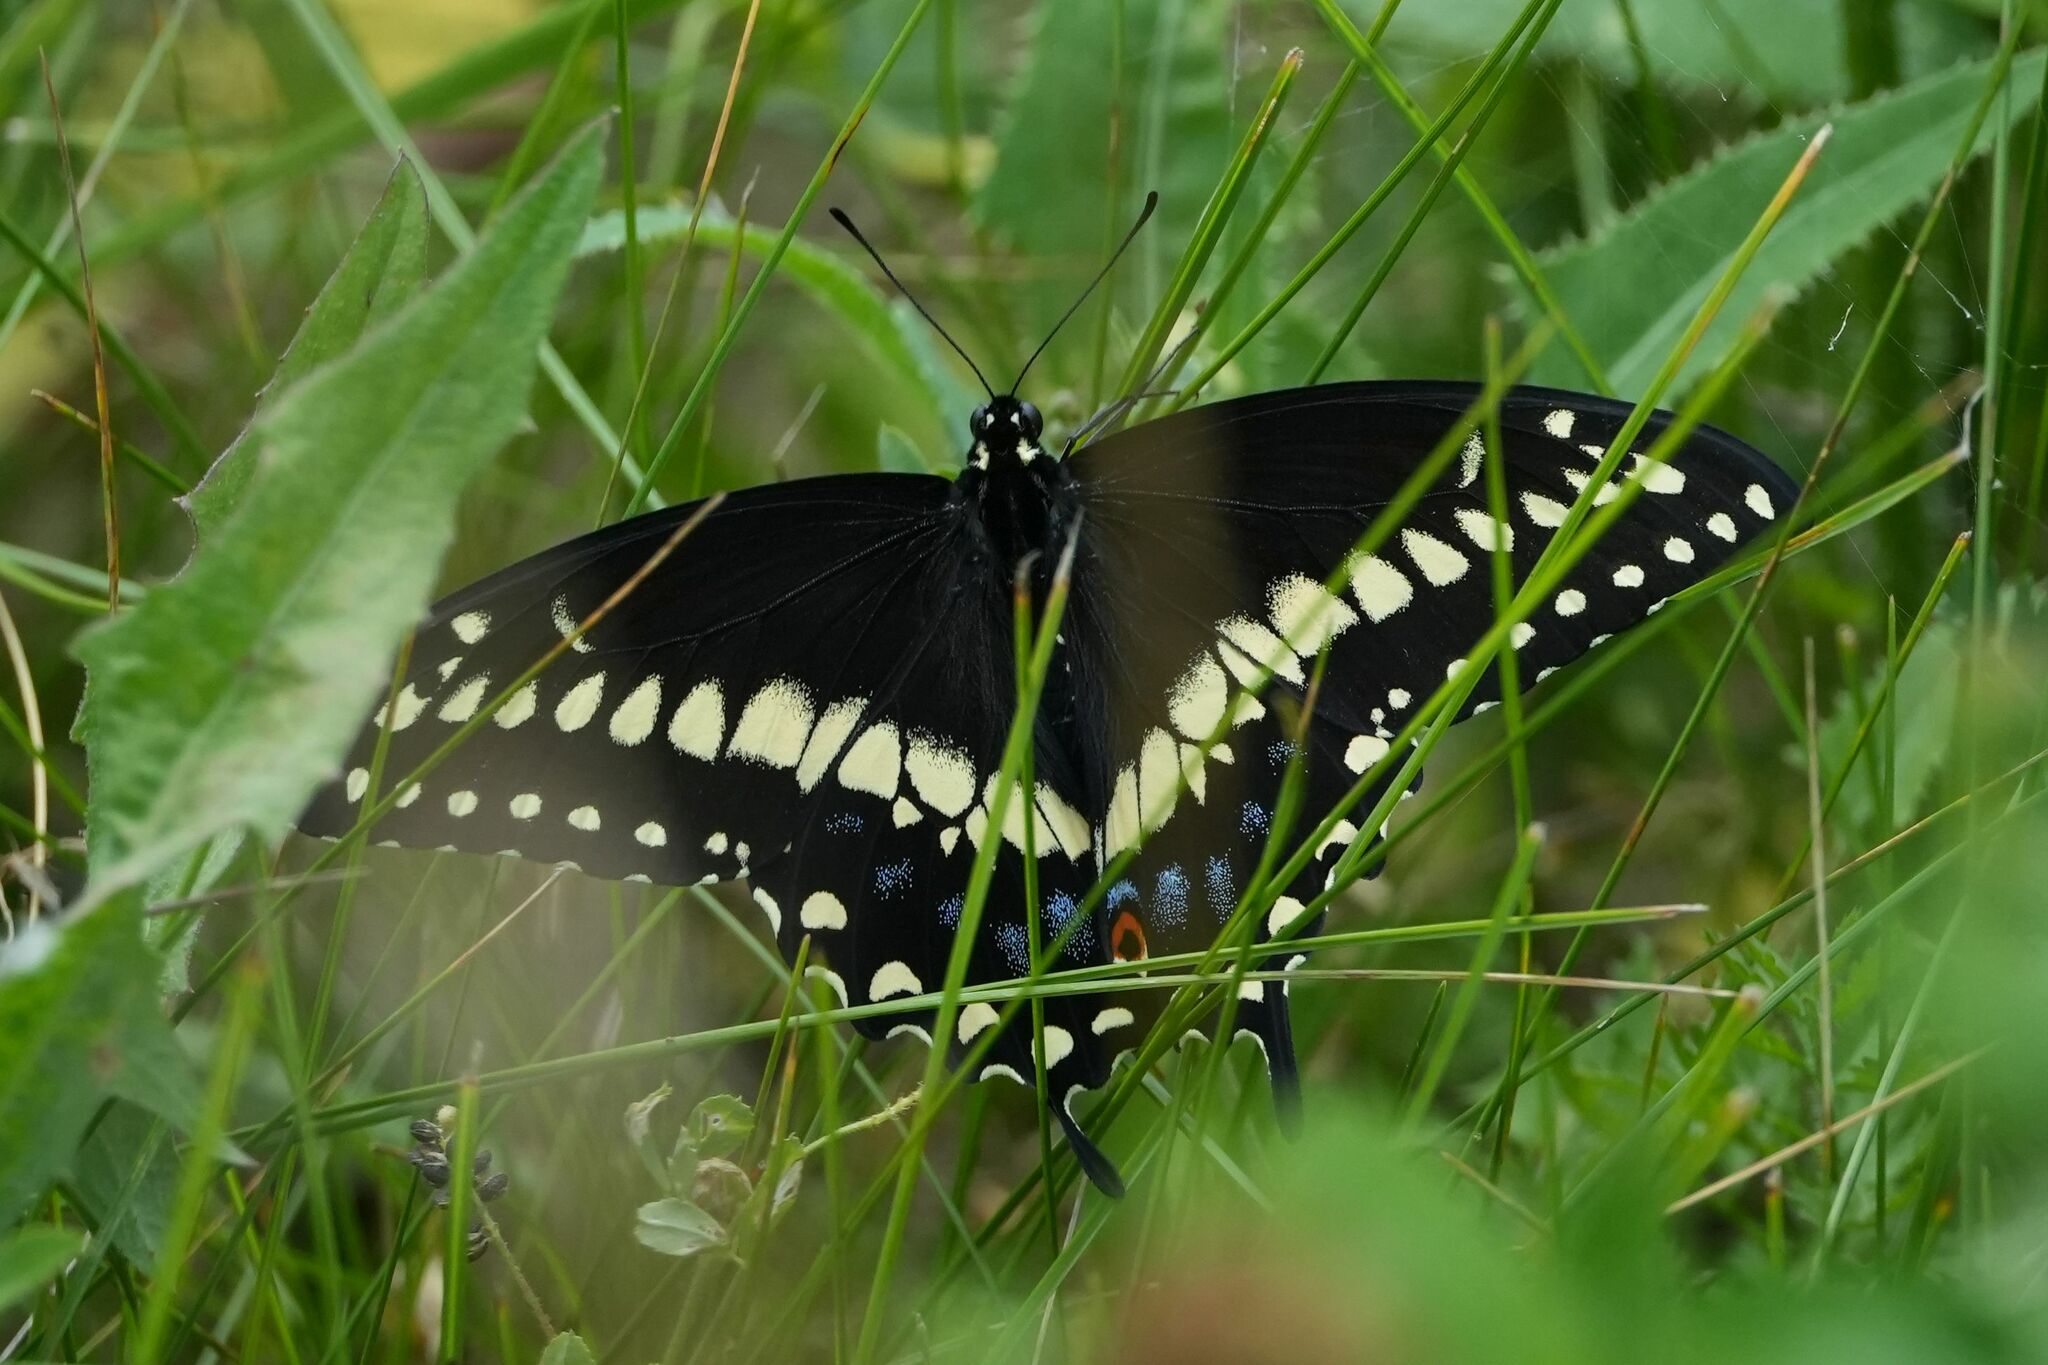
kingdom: Animalia
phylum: Arthropoda
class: Insecta
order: Lepidoptera
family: Papilionidae
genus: Papilio
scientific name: Papilio polyxenes
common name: Black swallowtail
